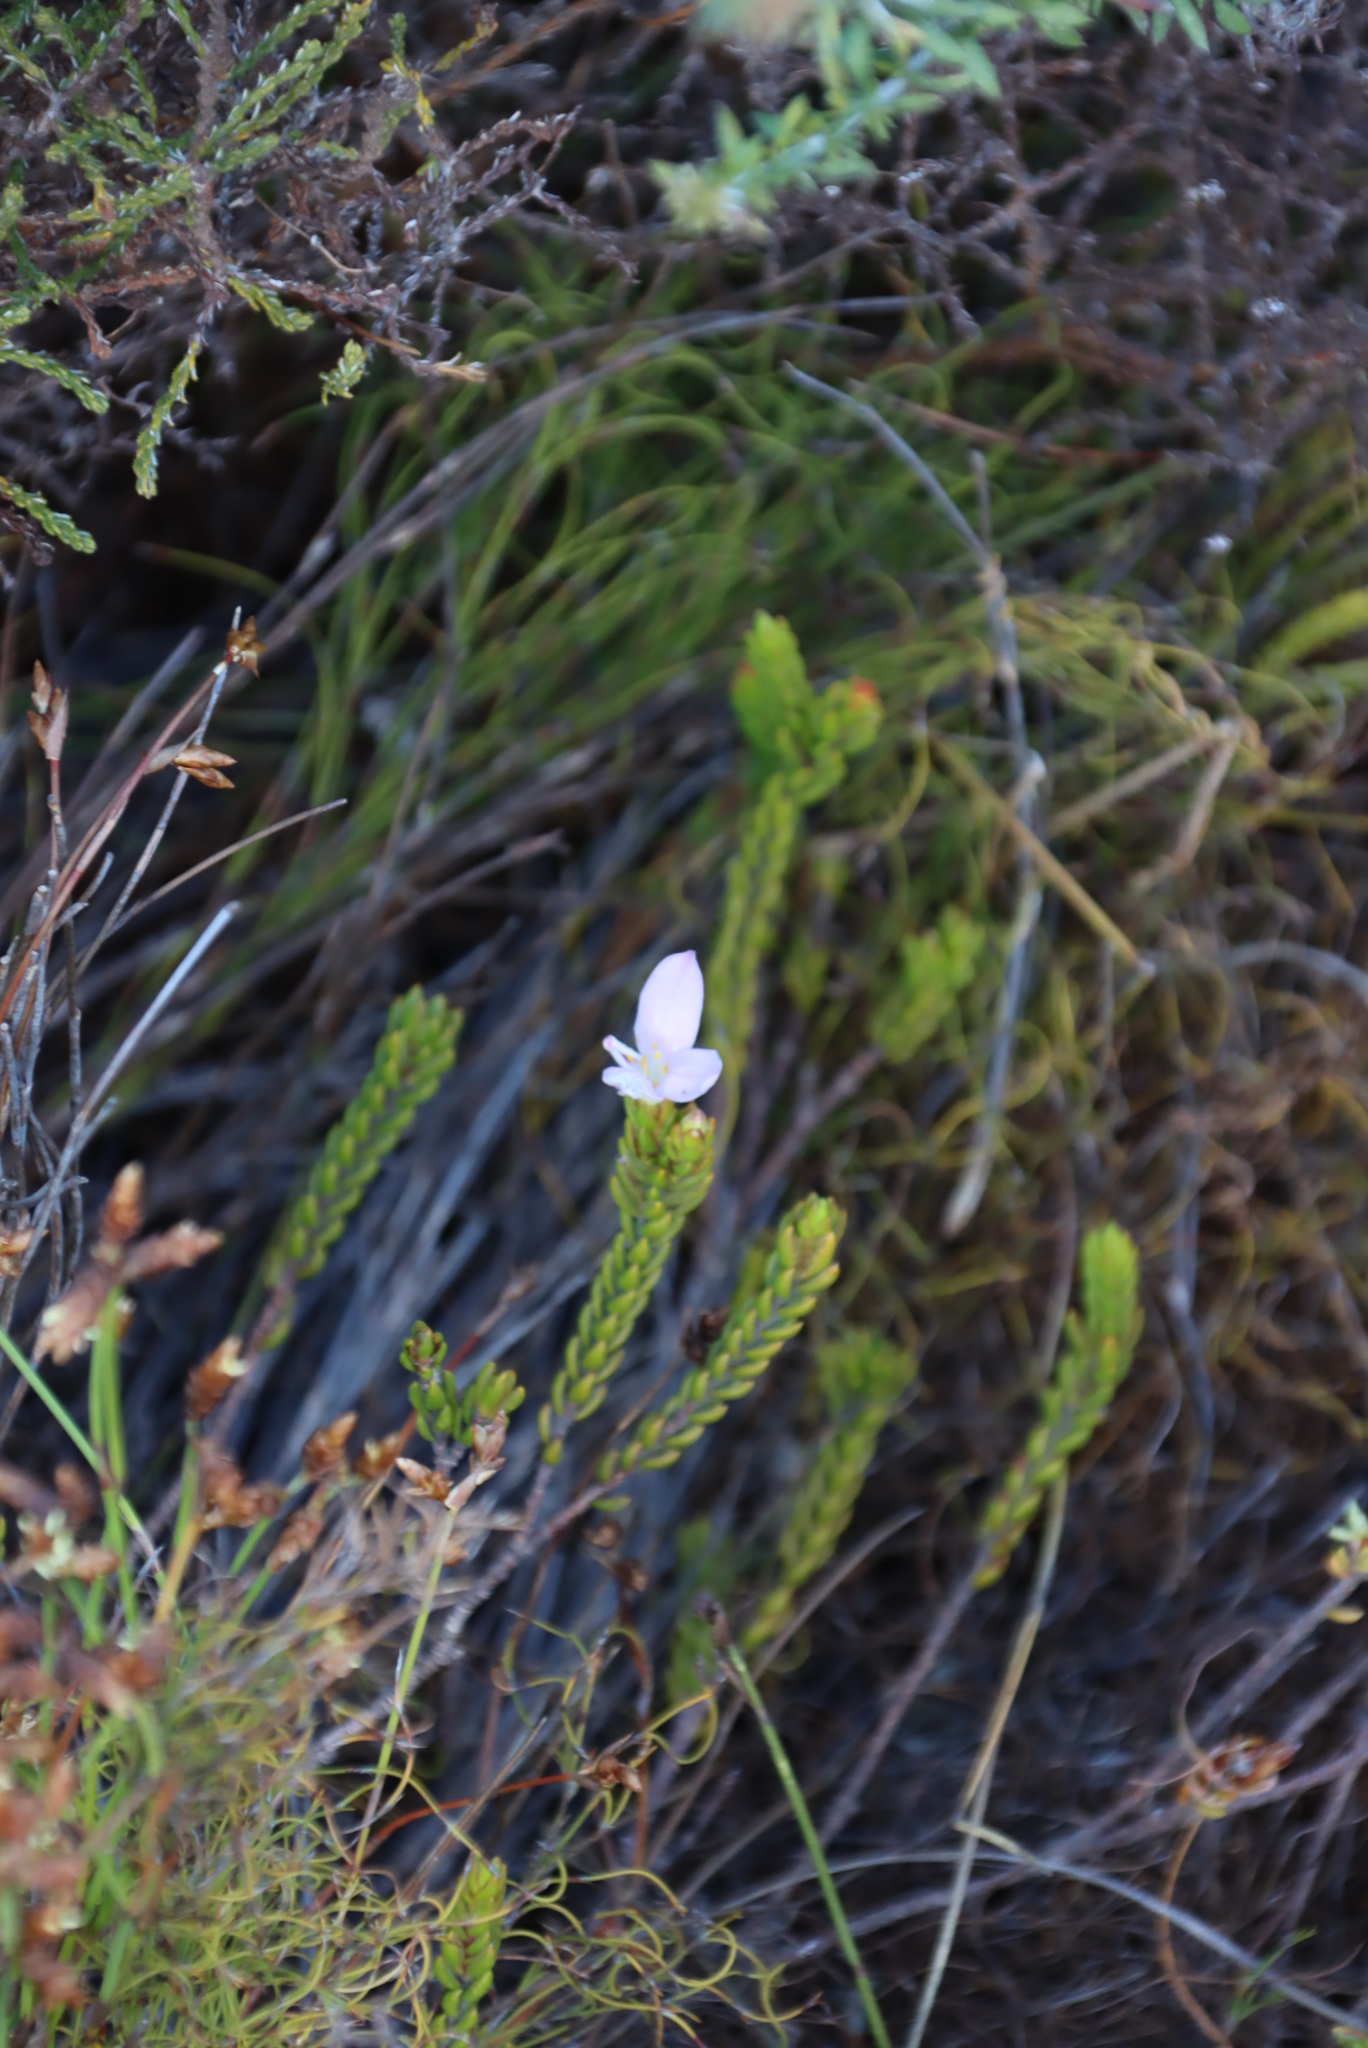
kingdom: Plantae
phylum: Tracheophyta
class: Magnoliopsida
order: Malvales
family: Thymelaeaceae
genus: Lachnaea
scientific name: Lachnaea grandiflora
